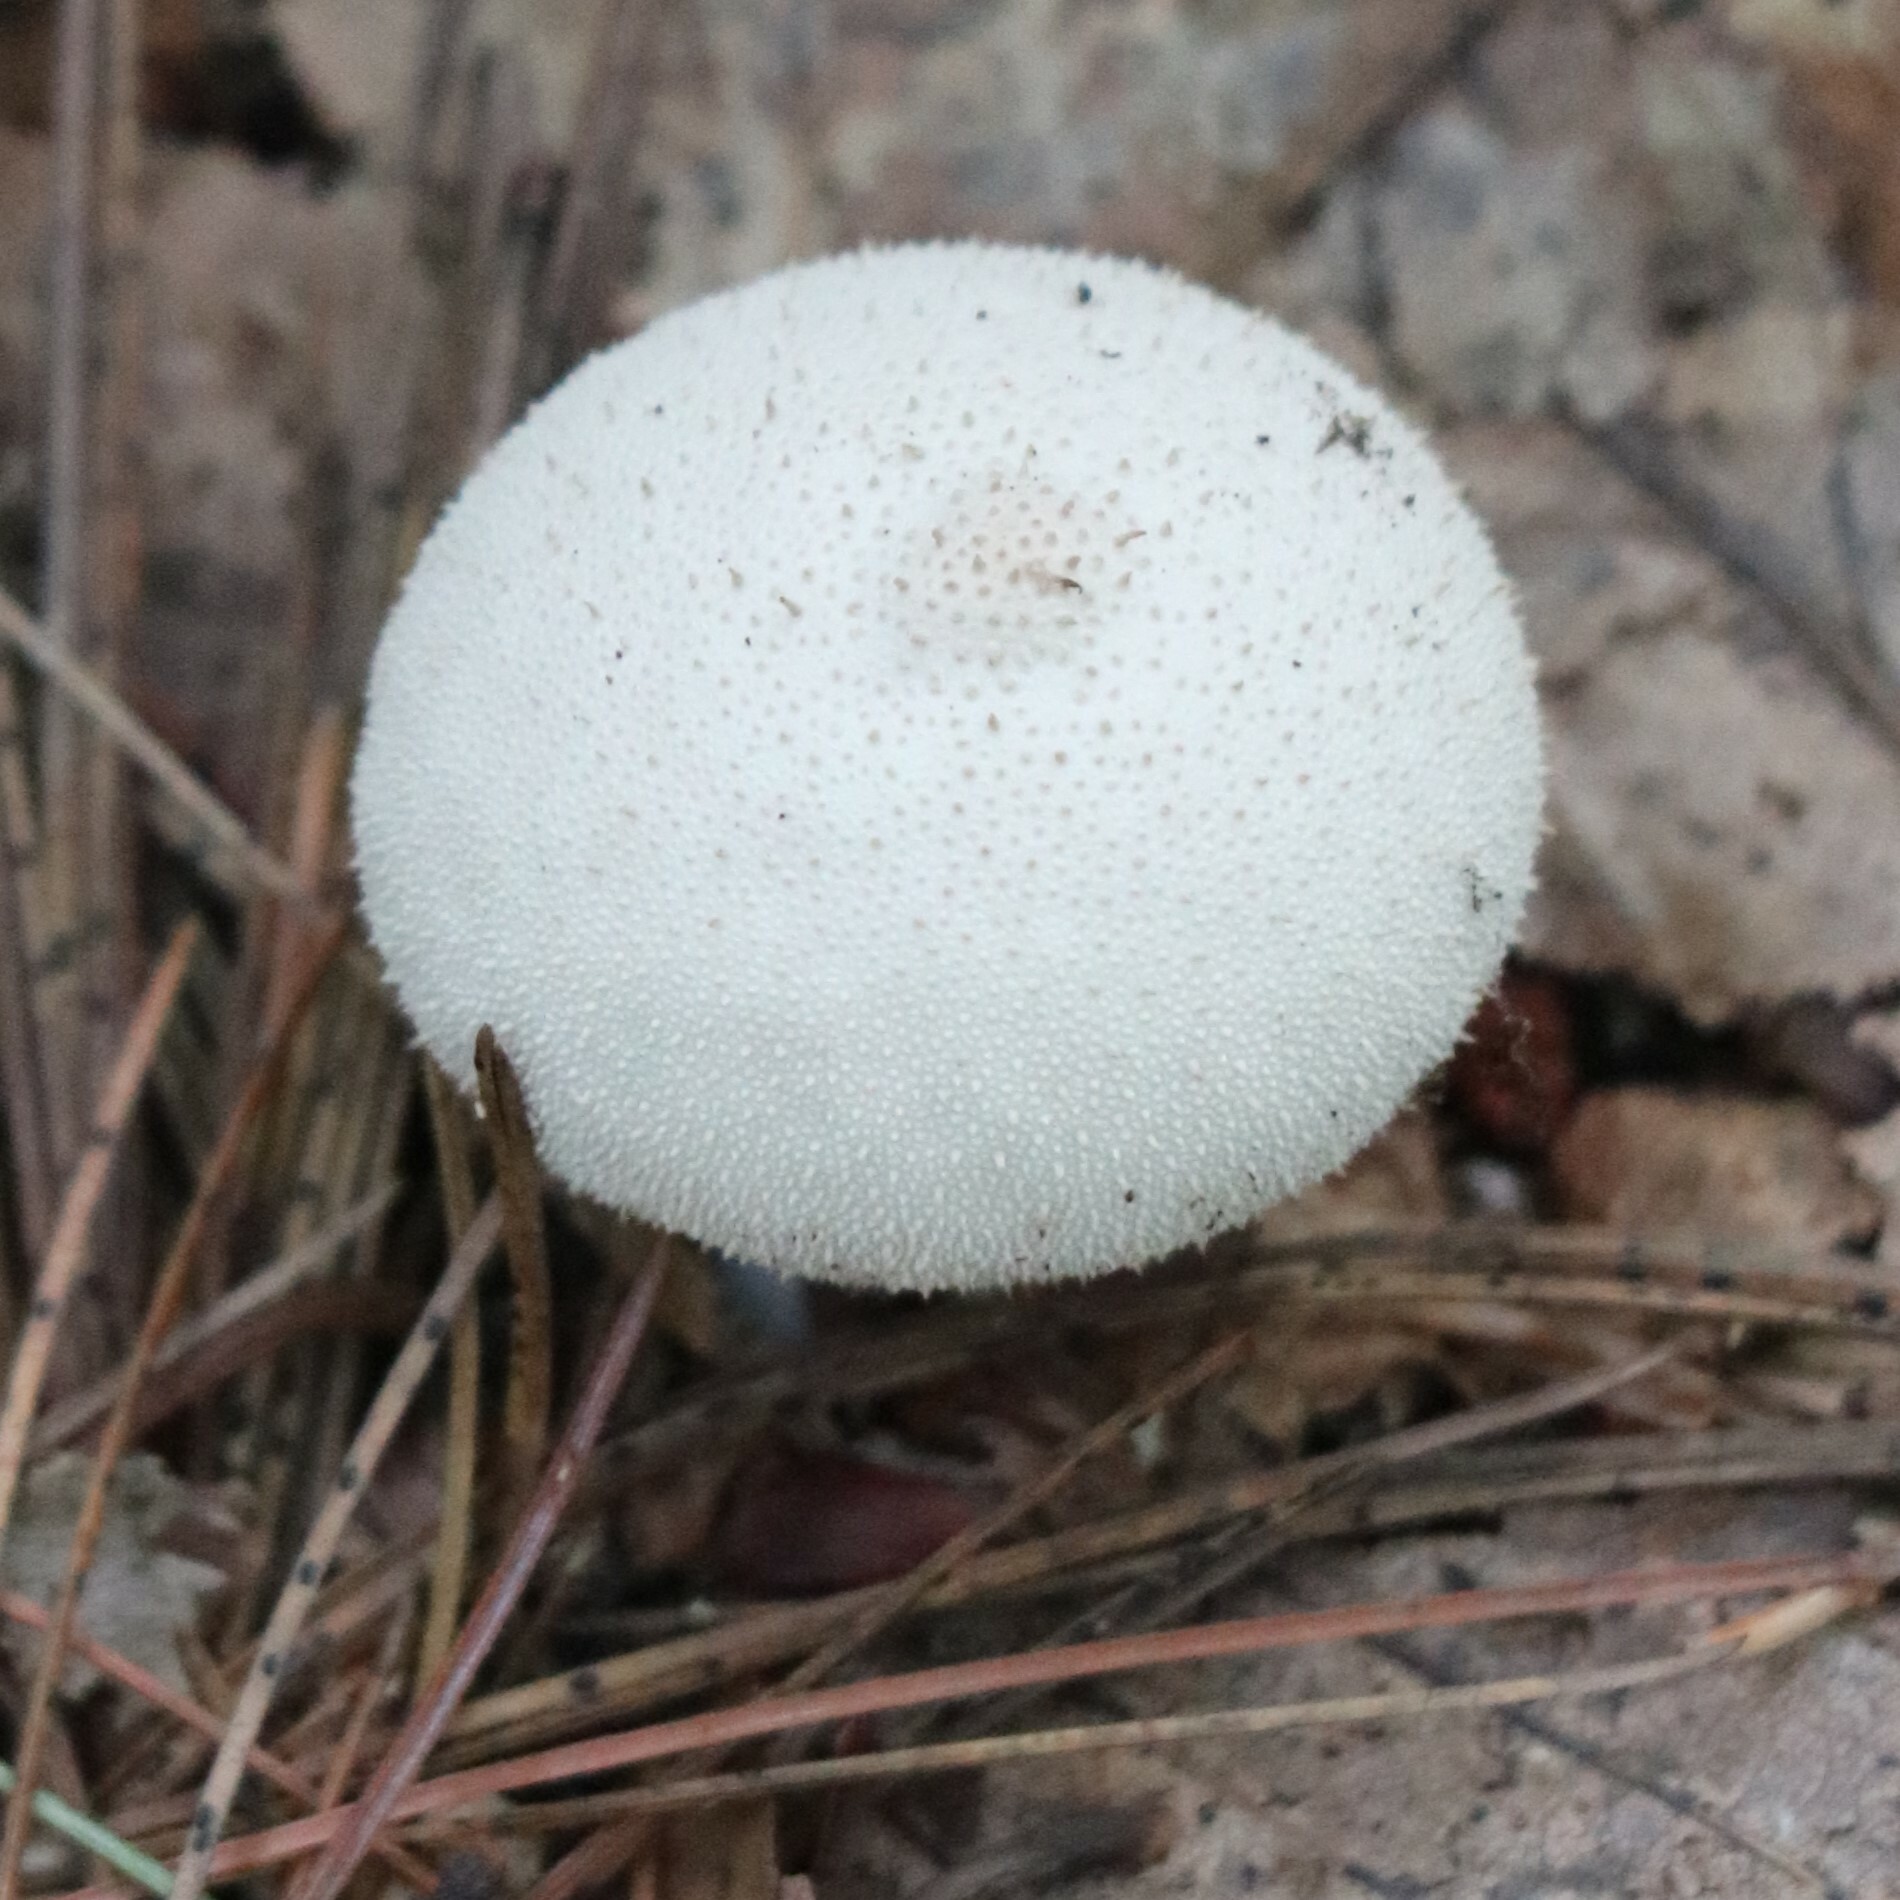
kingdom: Fungi
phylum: Basidiomycota
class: Agaricomycetes
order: Agaricales
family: Lycoperdaceae
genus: Lycoperdon
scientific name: Lycoperdon perlatum
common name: Common puffball
